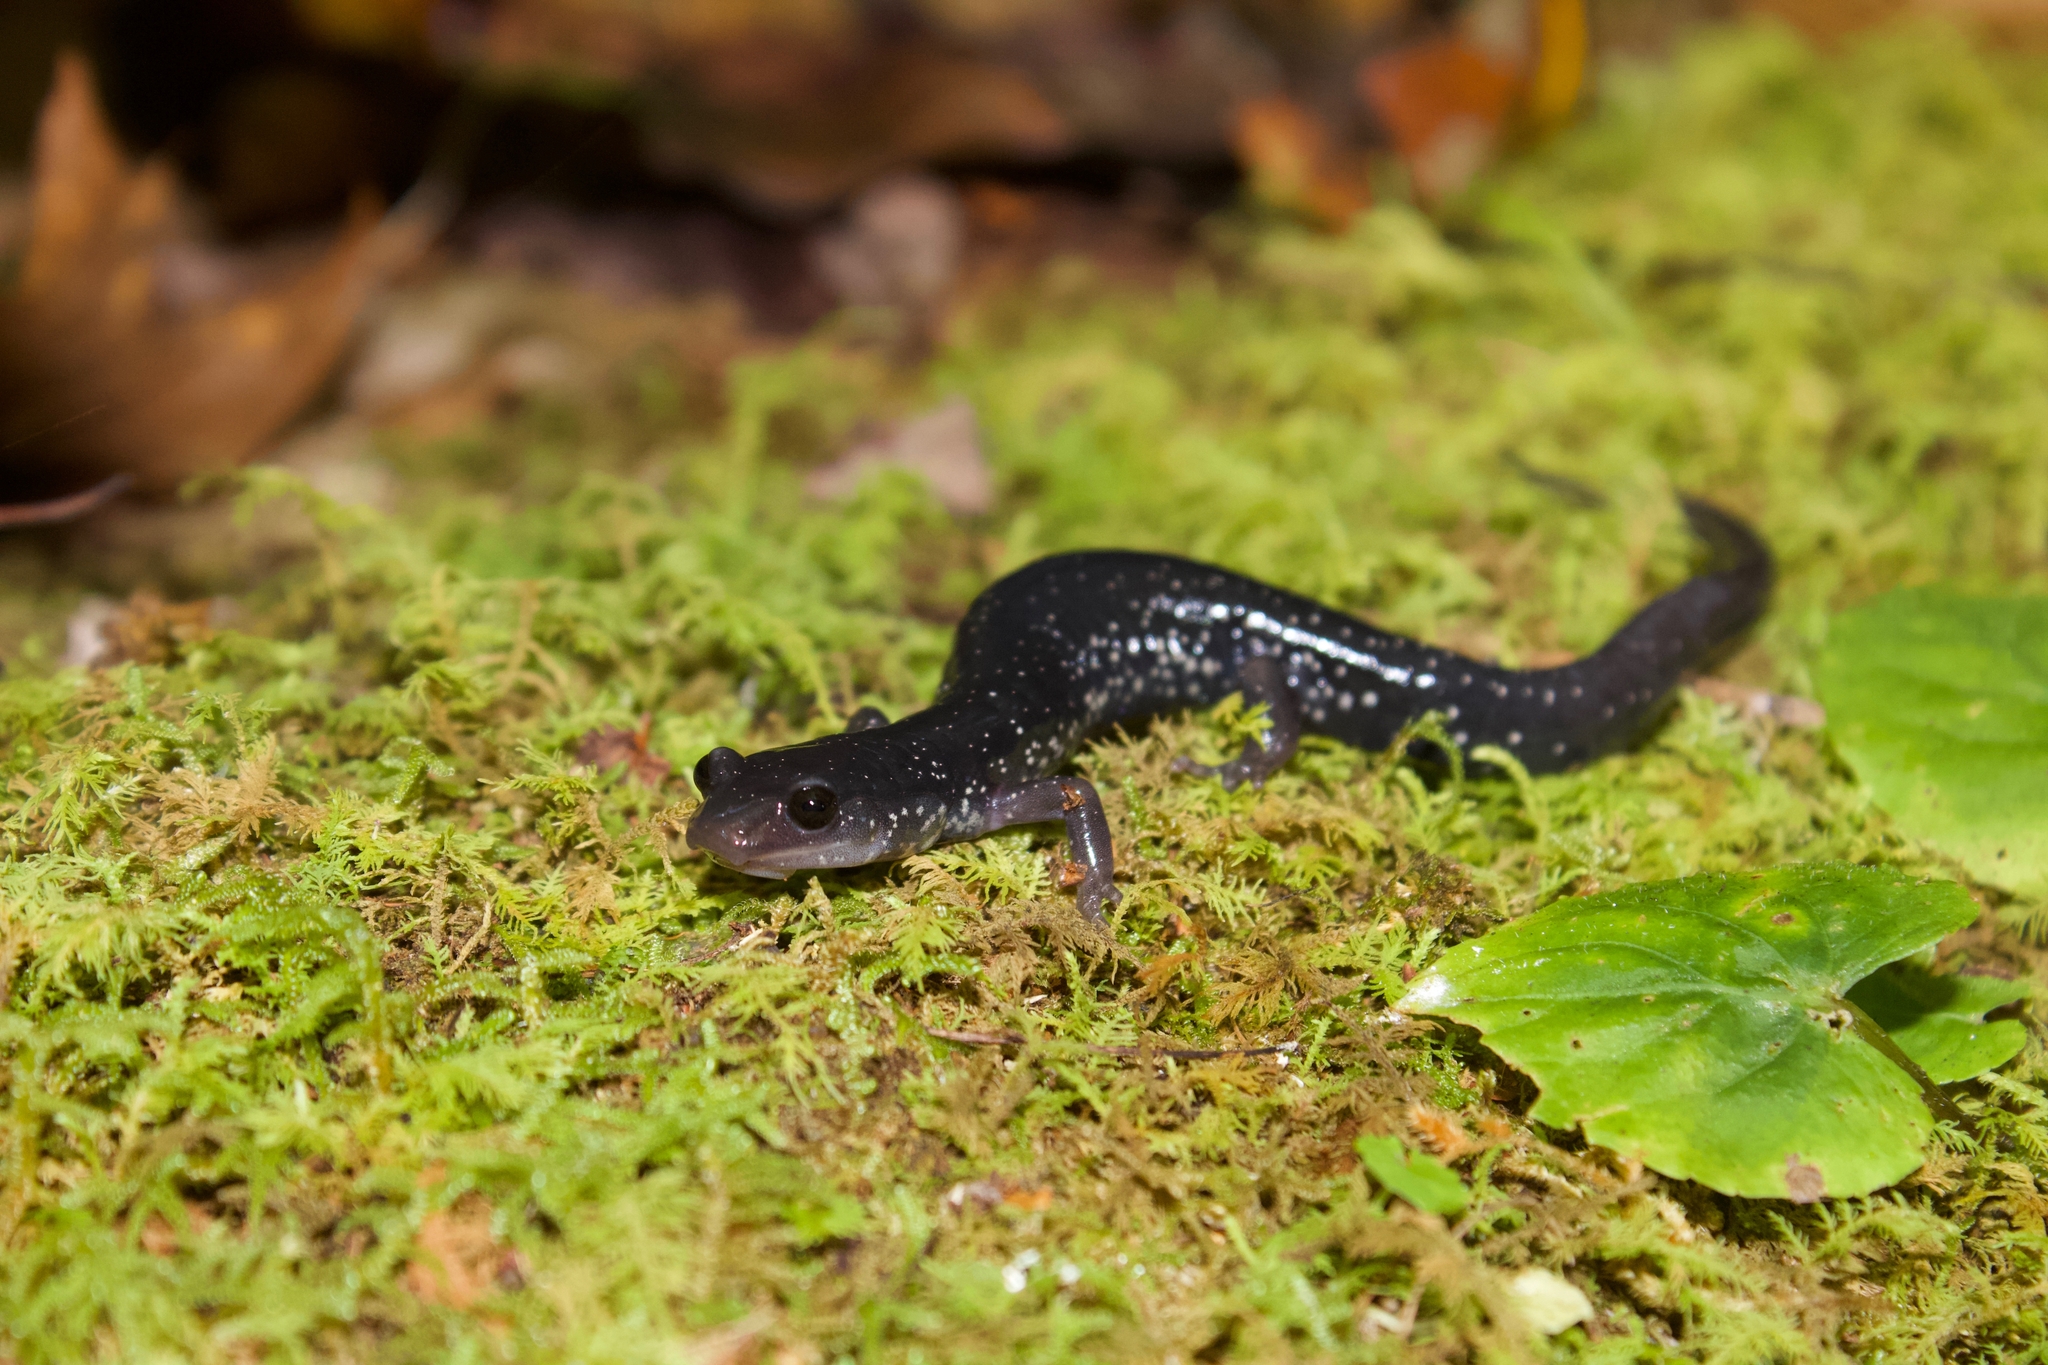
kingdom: Animalia
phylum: Chordata
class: Amphibia
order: Caudata
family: Plethodontidae
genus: Plethodon
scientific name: Plethodon teyahalee
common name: Southern appalachian salamander
